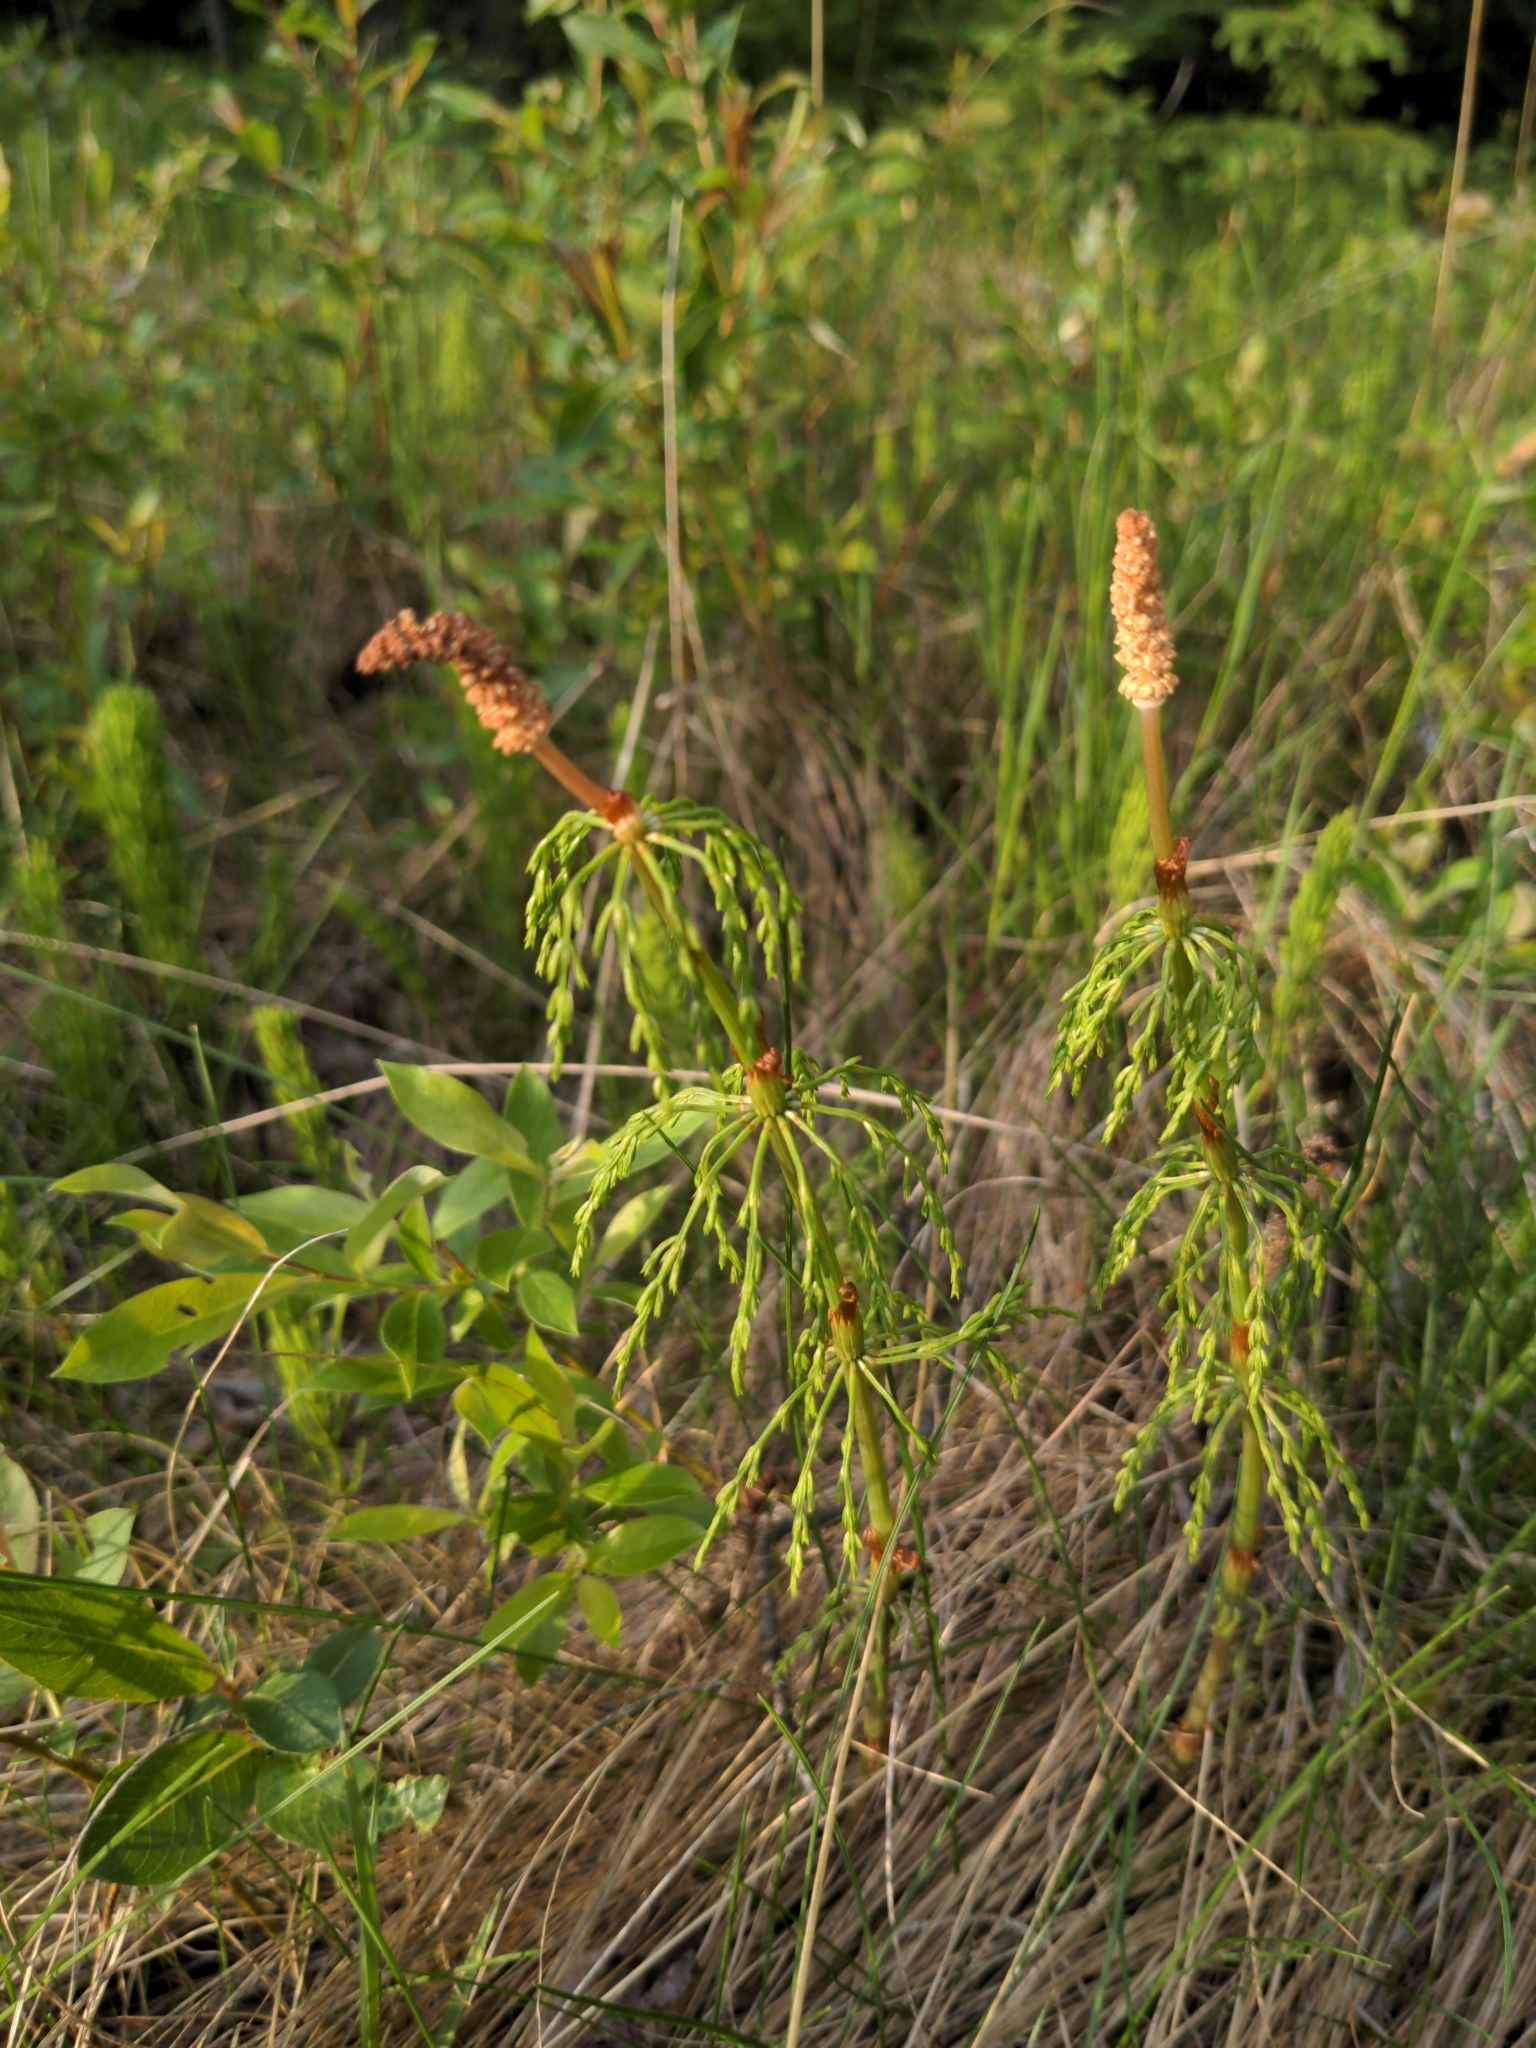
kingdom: Plantae
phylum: Tracheophyta
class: Polypodiopsida
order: Equisetales
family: Equisetaceae
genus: Equisetum
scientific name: Equisetum sylvaticum
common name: Wood horsetail
